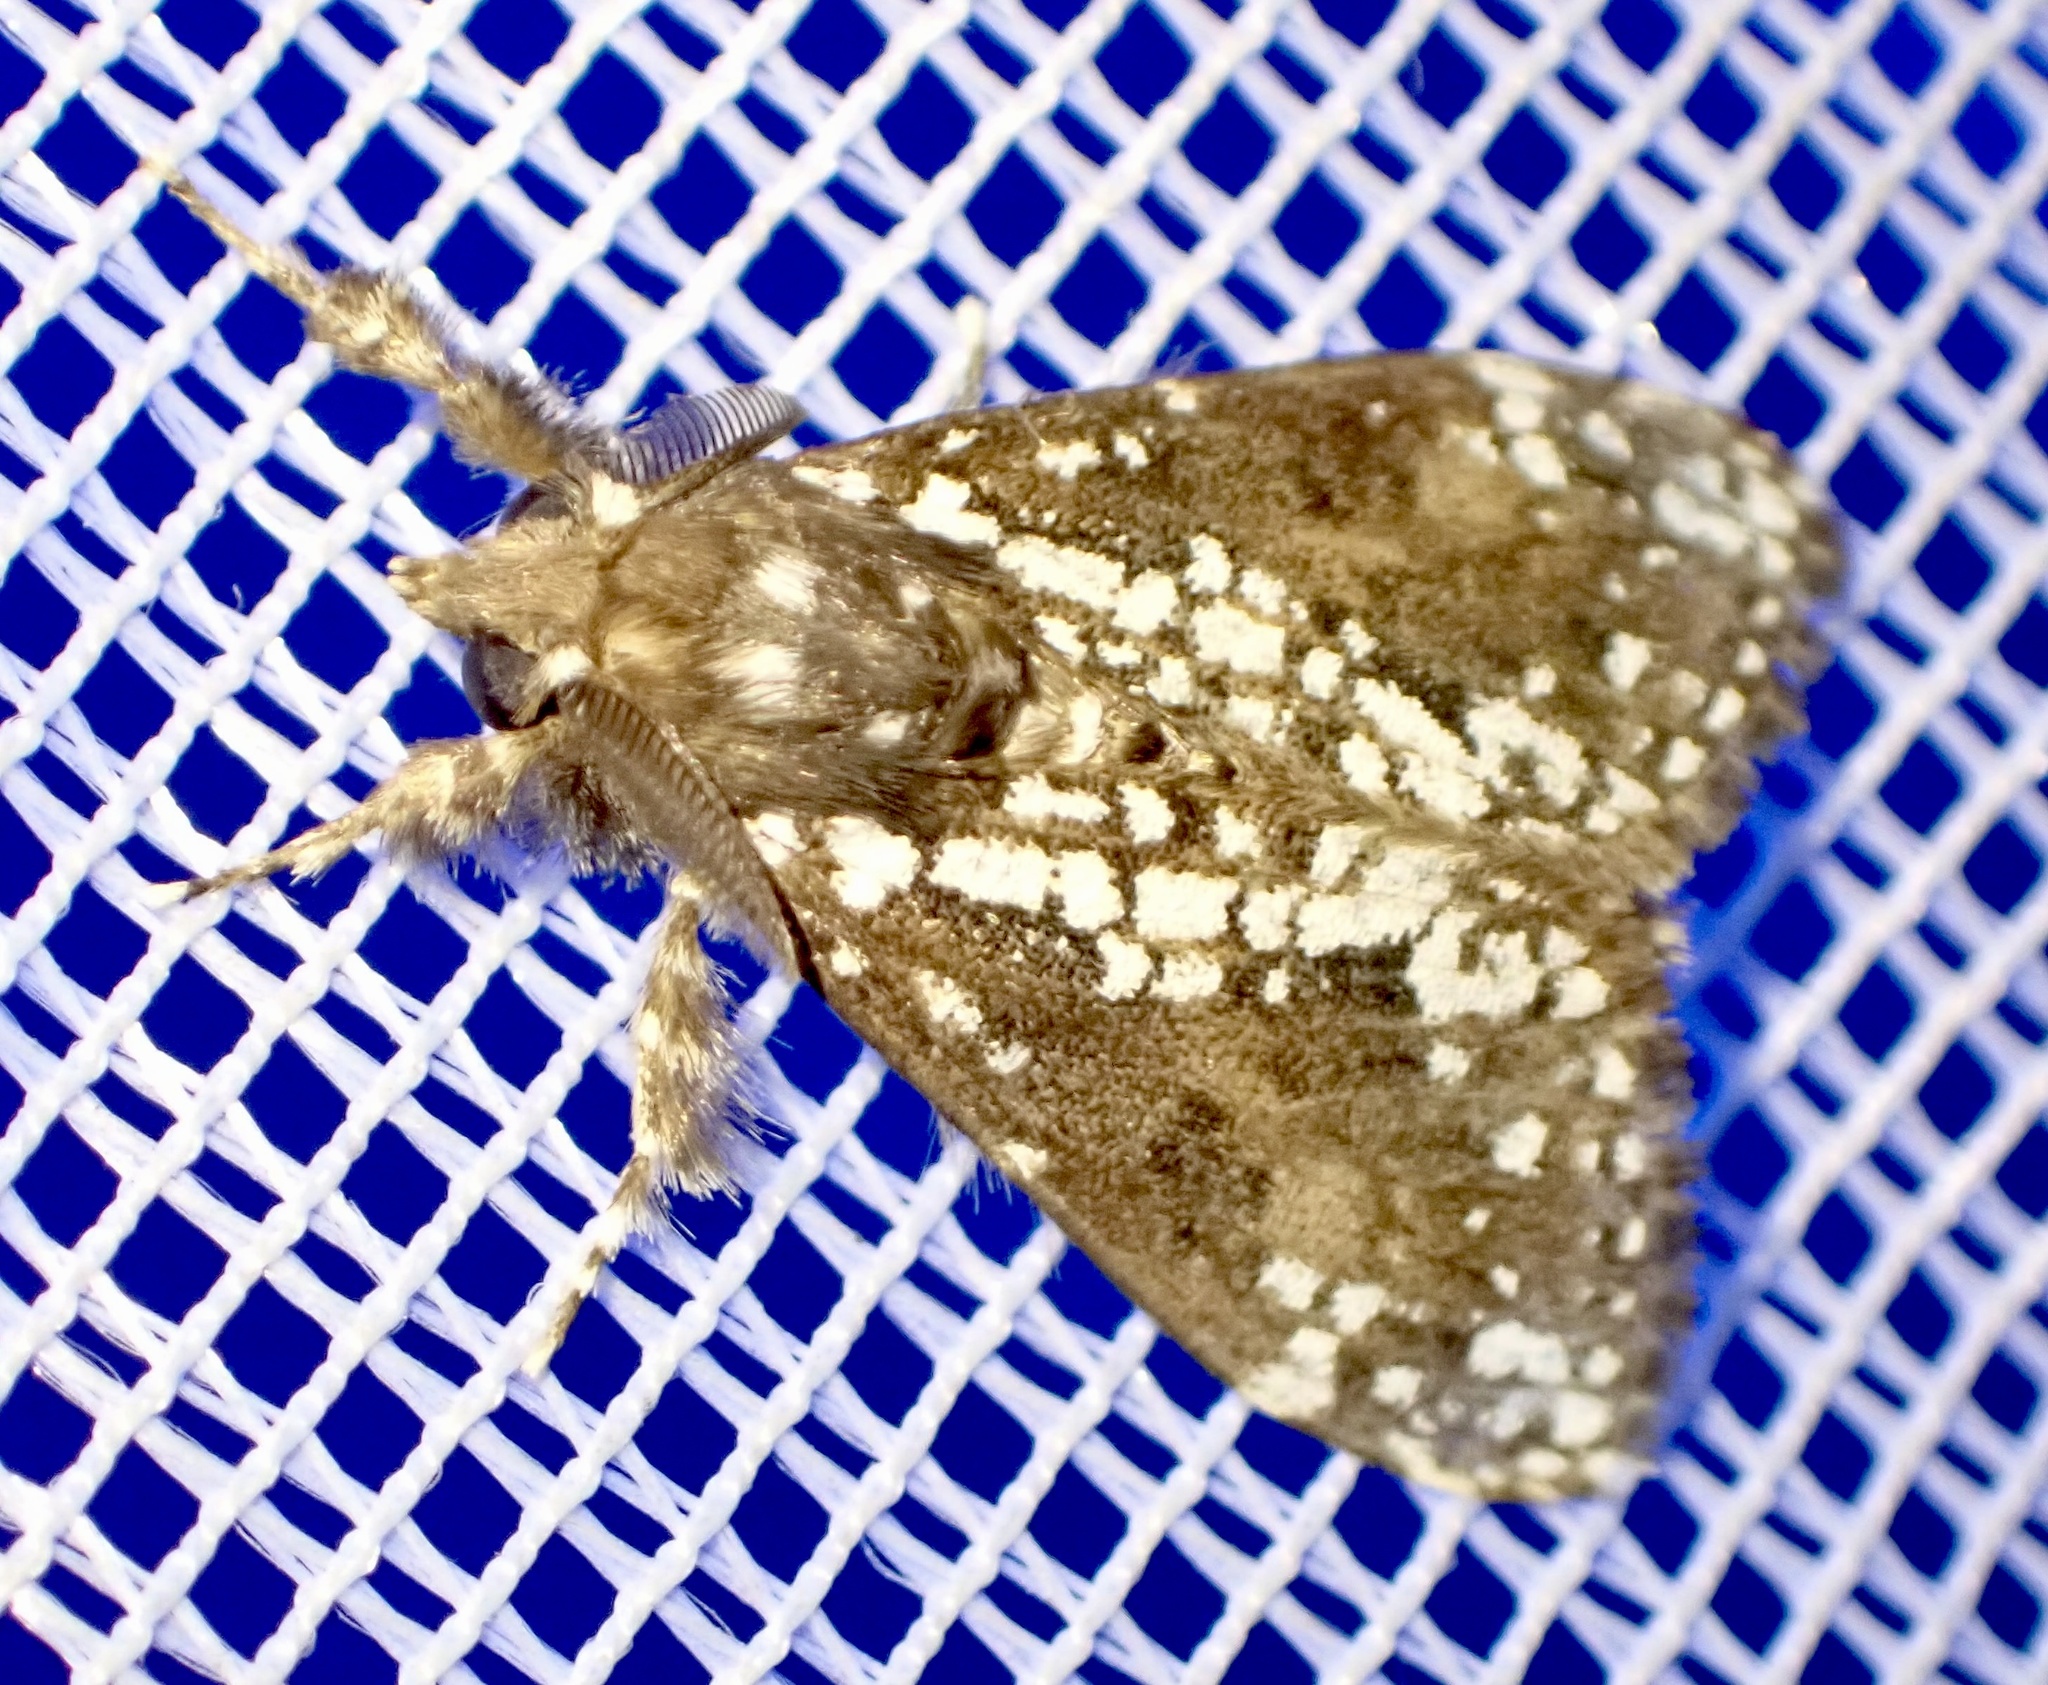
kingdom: Animalia
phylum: Arthropoda
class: Insecta
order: Lepidoptera
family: Erebidae
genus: Dasychira
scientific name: Dasychira punctifera
